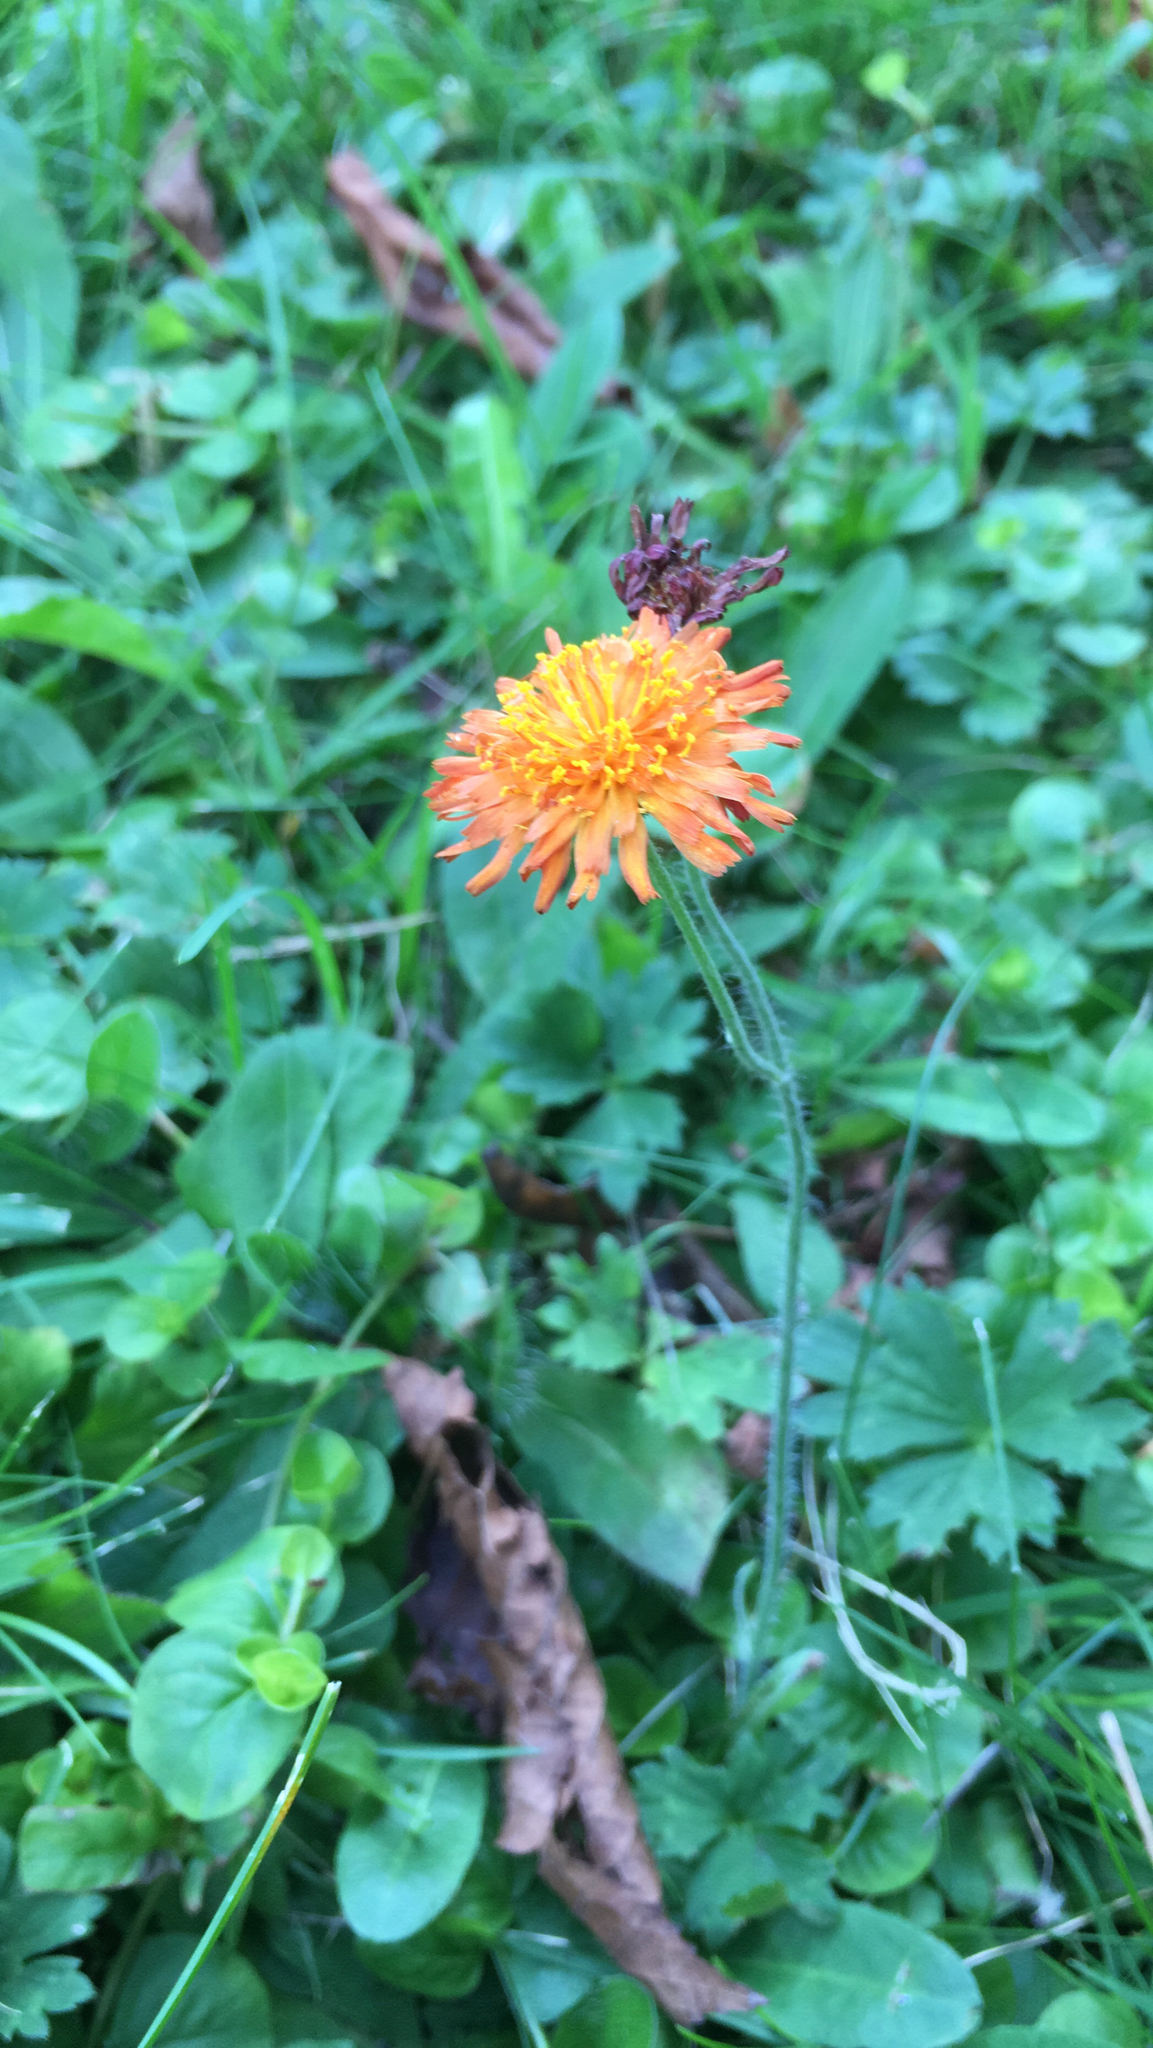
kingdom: Plantae
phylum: Tracheophyta
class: Magnoliopsida
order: Asterales
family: Asteraceae
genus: Pilosella
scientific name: Pilosella aurantiaca
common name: Fox-and-cubs
